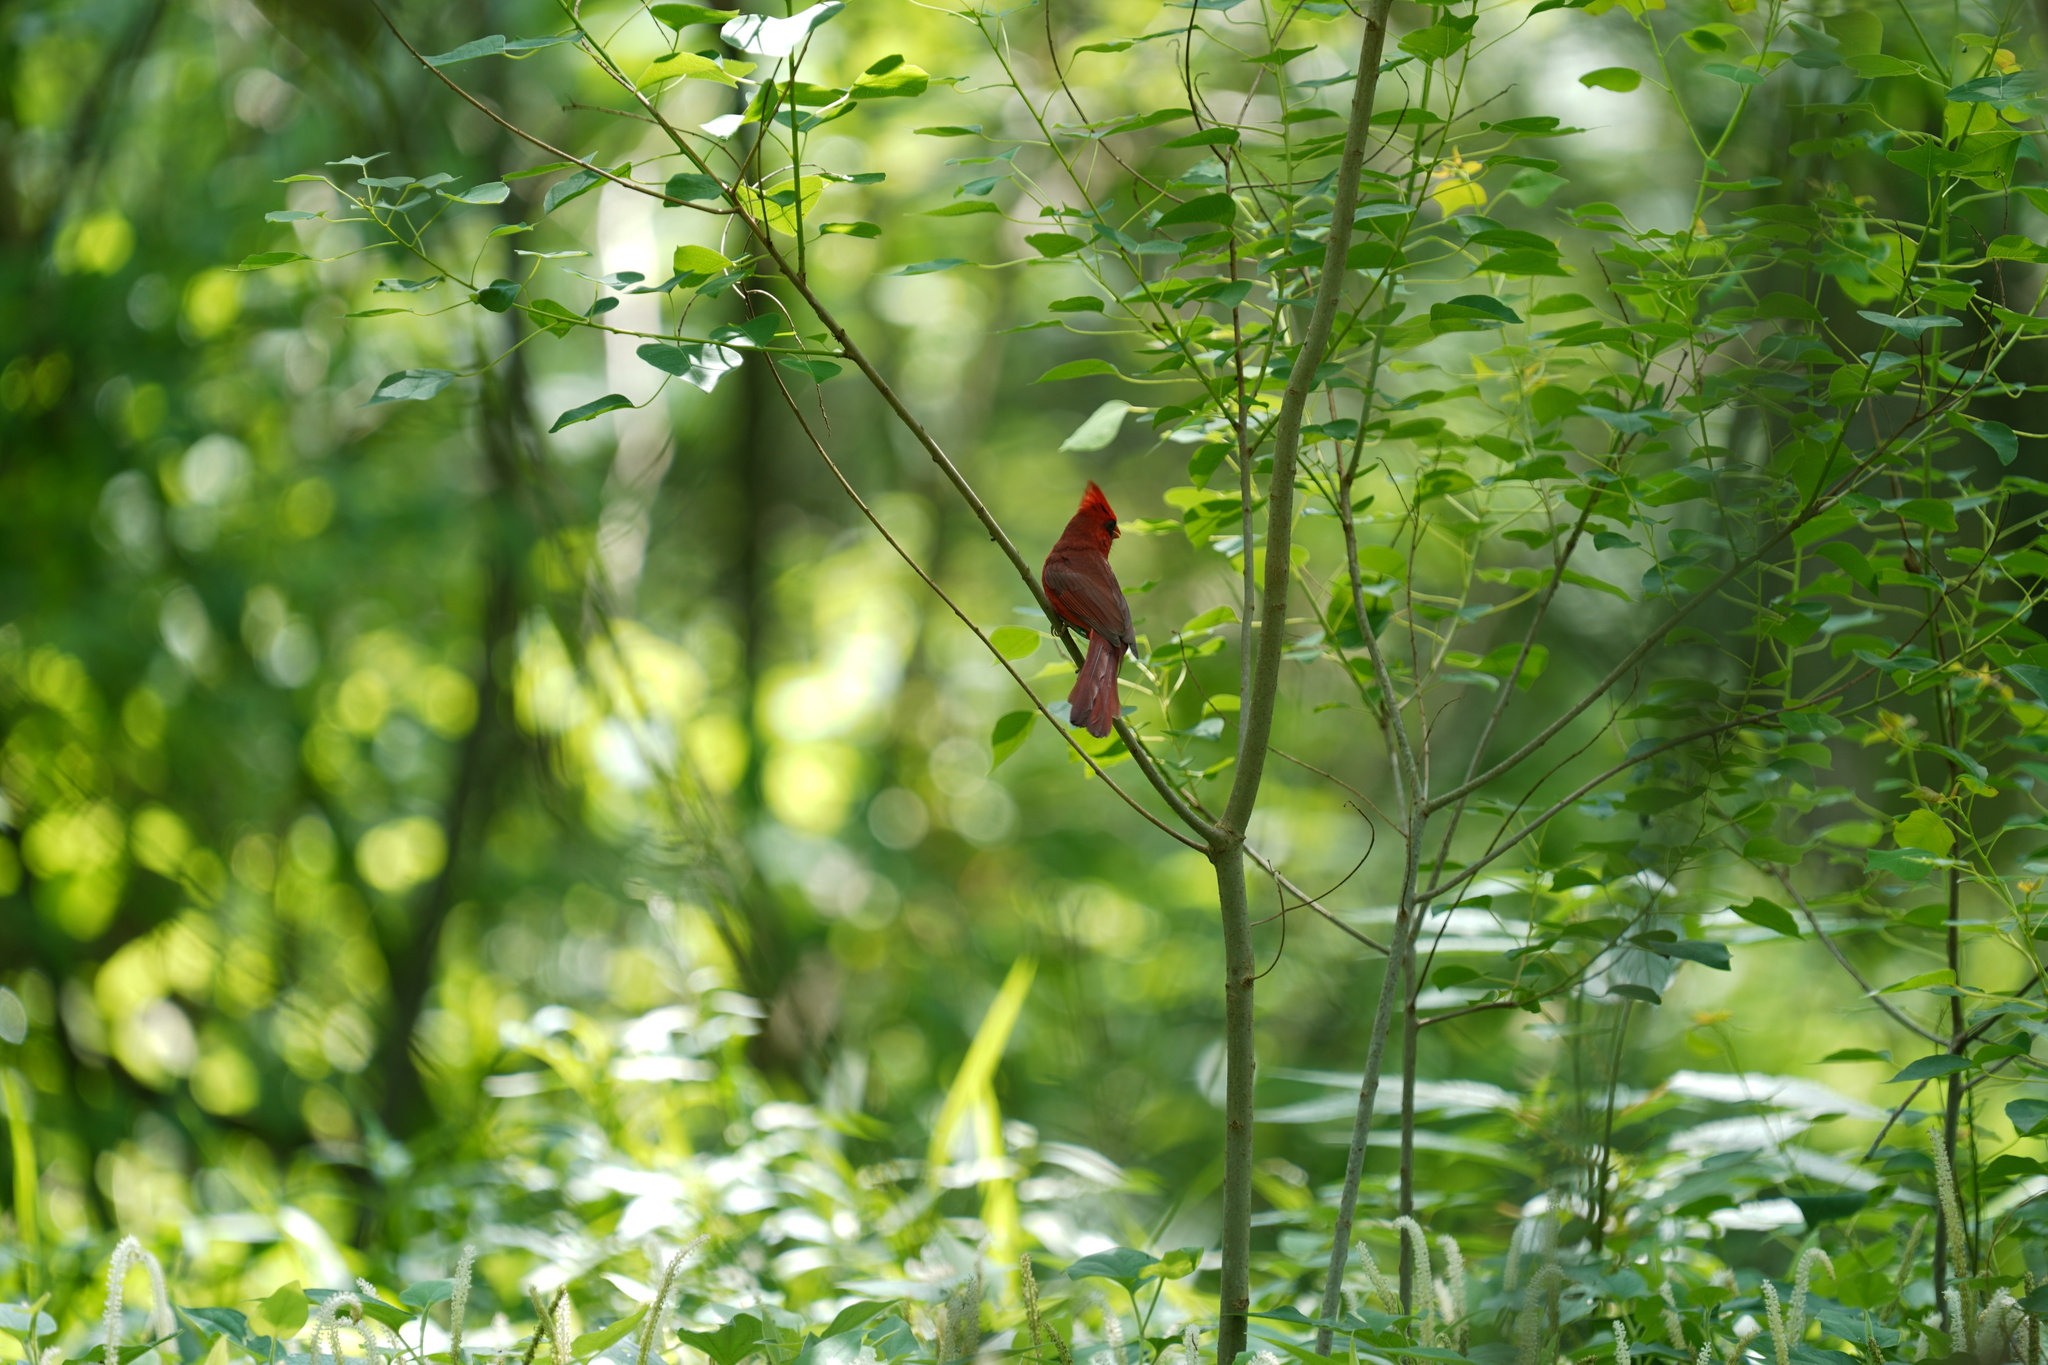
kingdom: Animalia
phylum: Chordata
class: Aves
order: Passeriformes
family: Cardinalidae
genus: Cardinalis
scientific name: Cardinalis cardinalis
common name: Northern cardinal
